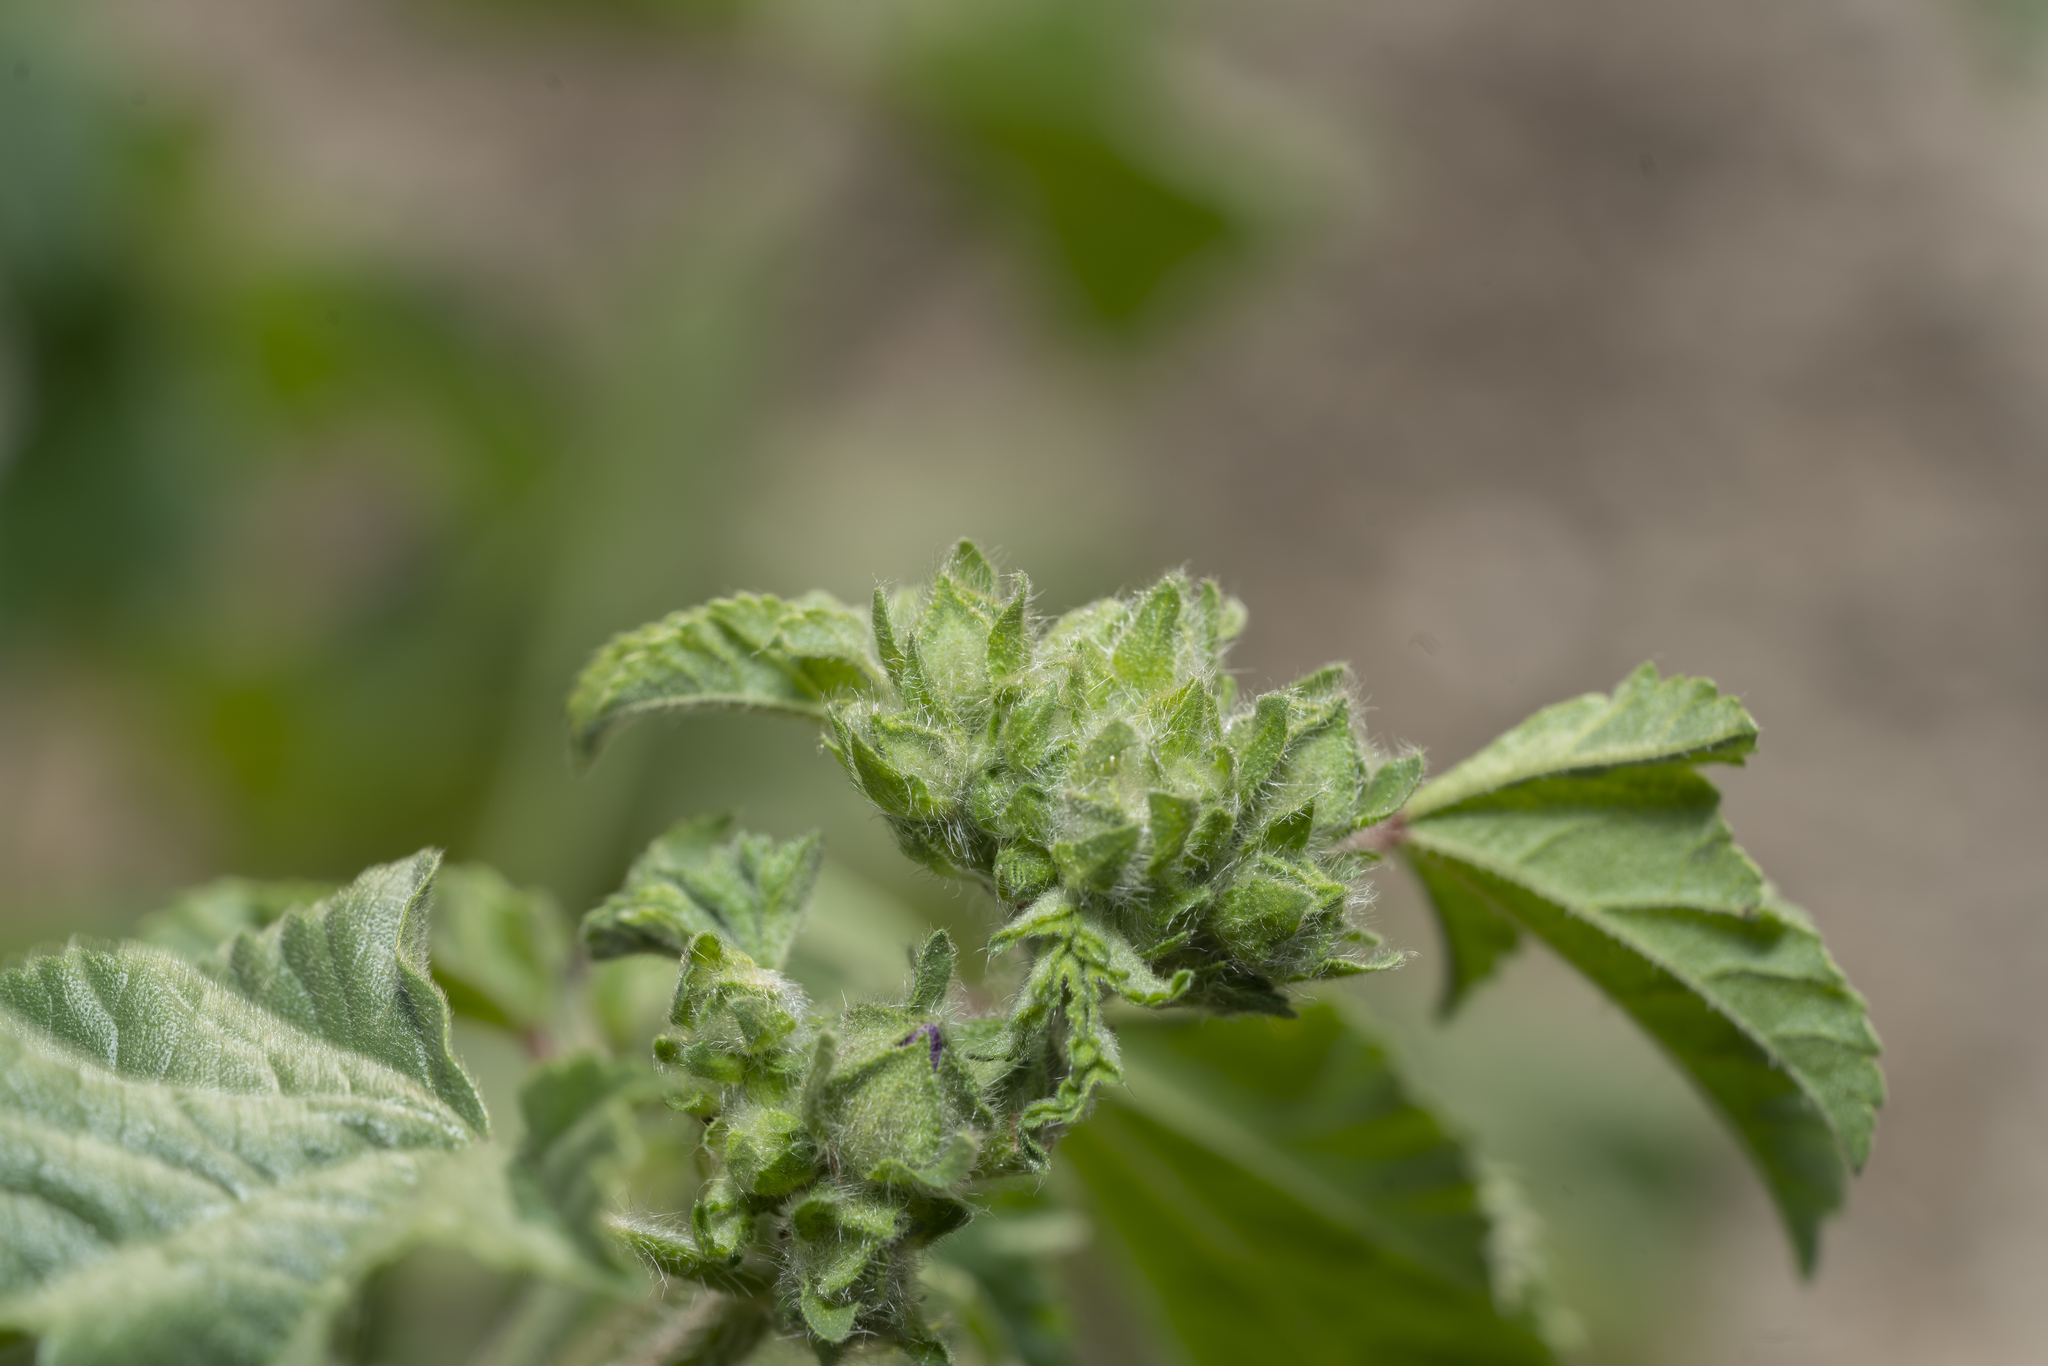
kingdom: Plantae
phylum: Tracheophyta
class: Magnoliopsida
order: Malvales
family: Malvaceae
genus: Malva
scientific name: Malva sylvestris
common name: Common mallow
